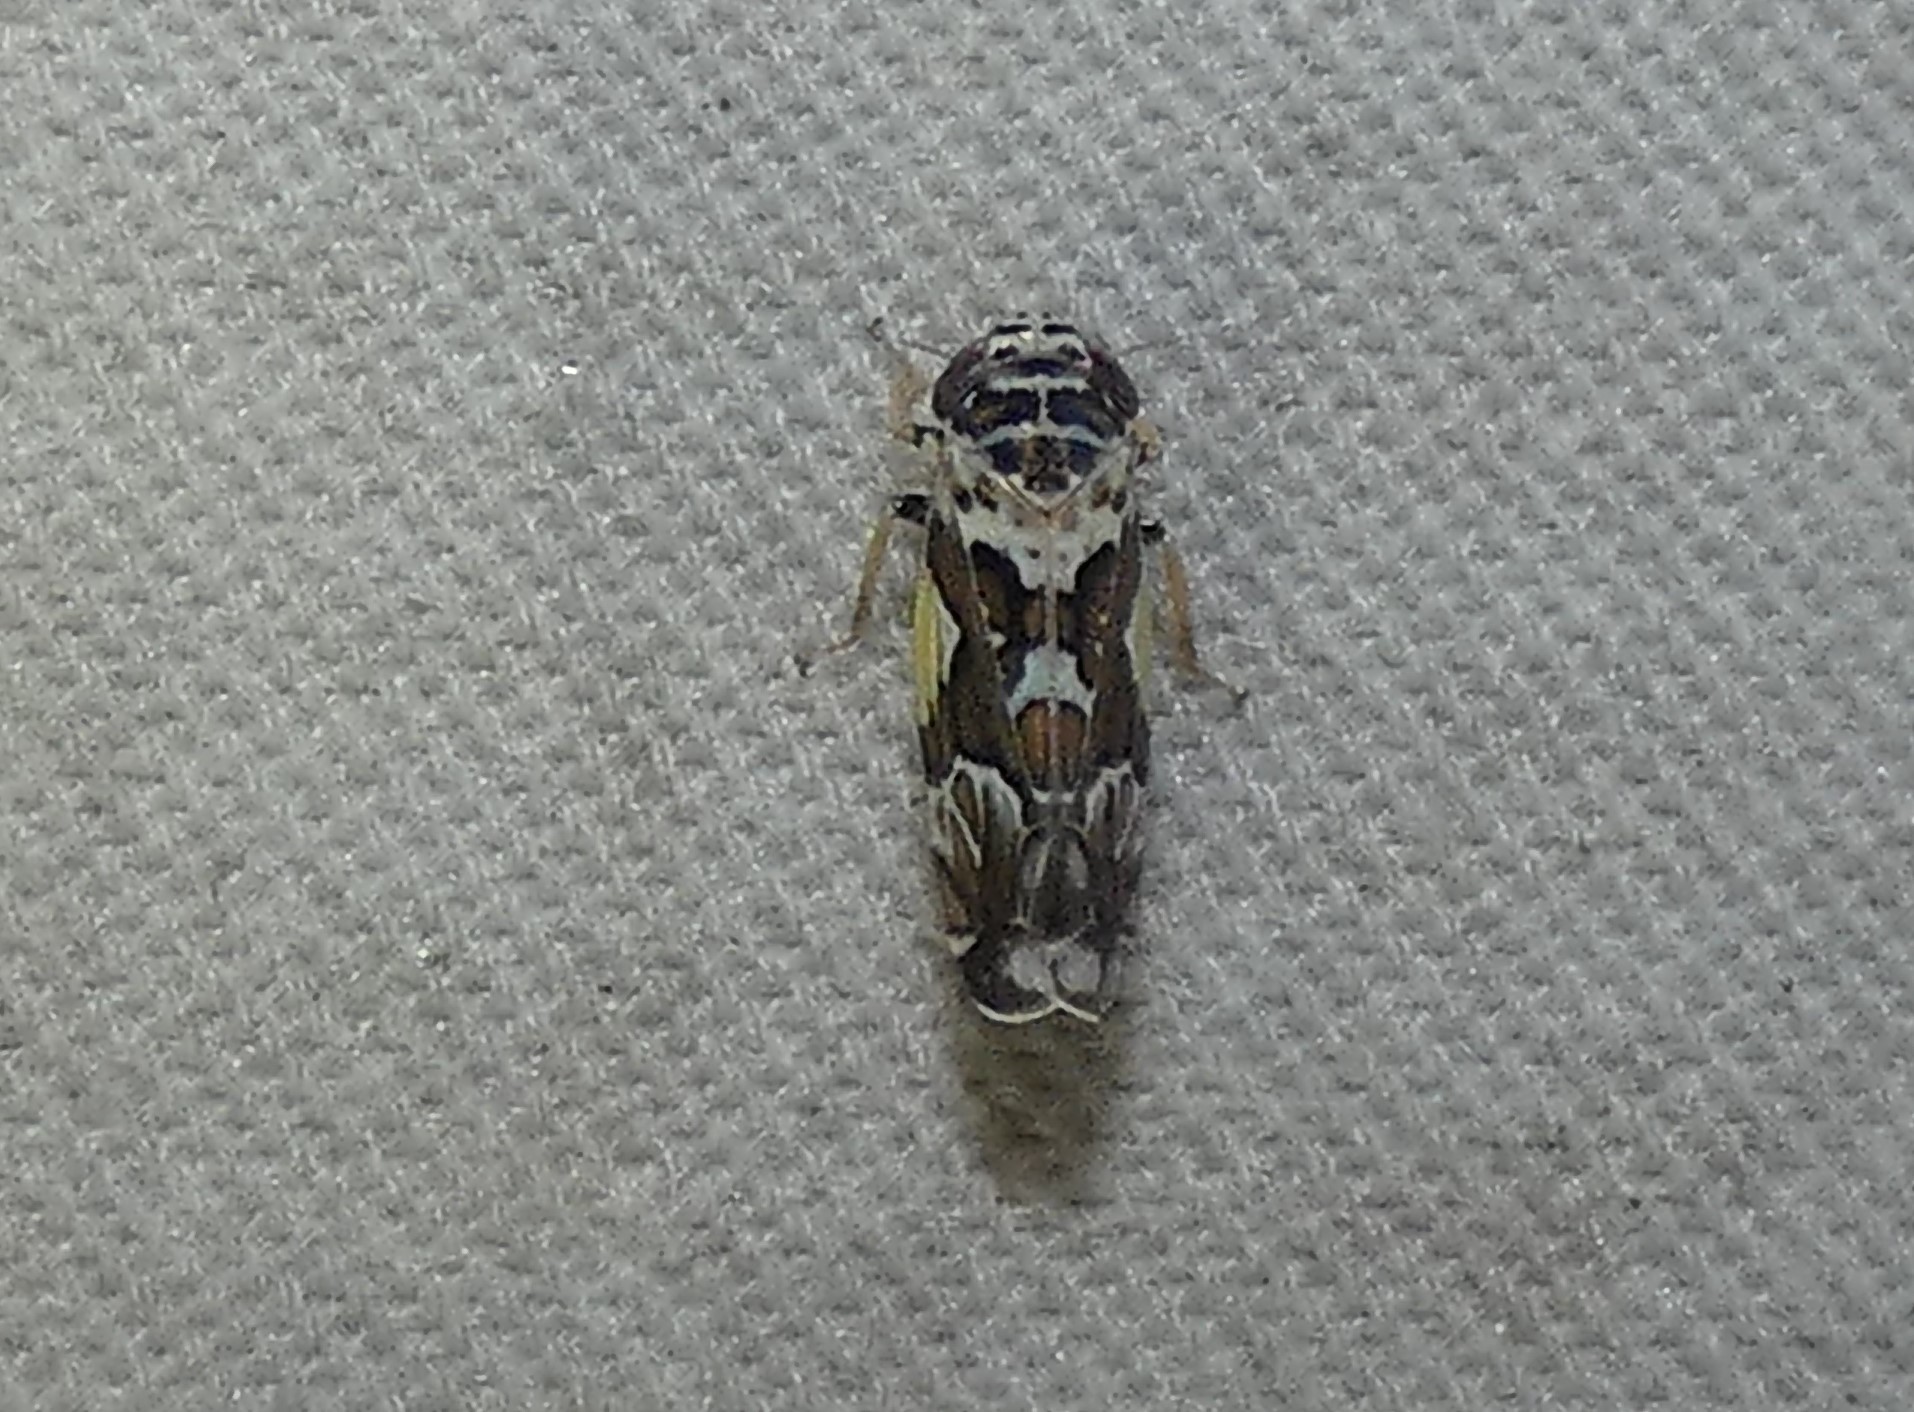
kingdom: Animalia
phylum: Arthropoda
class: Insecta
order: Hemiptera
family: Cicadellidae
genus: Sanctanus
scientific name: Sanctanus cruciatus
